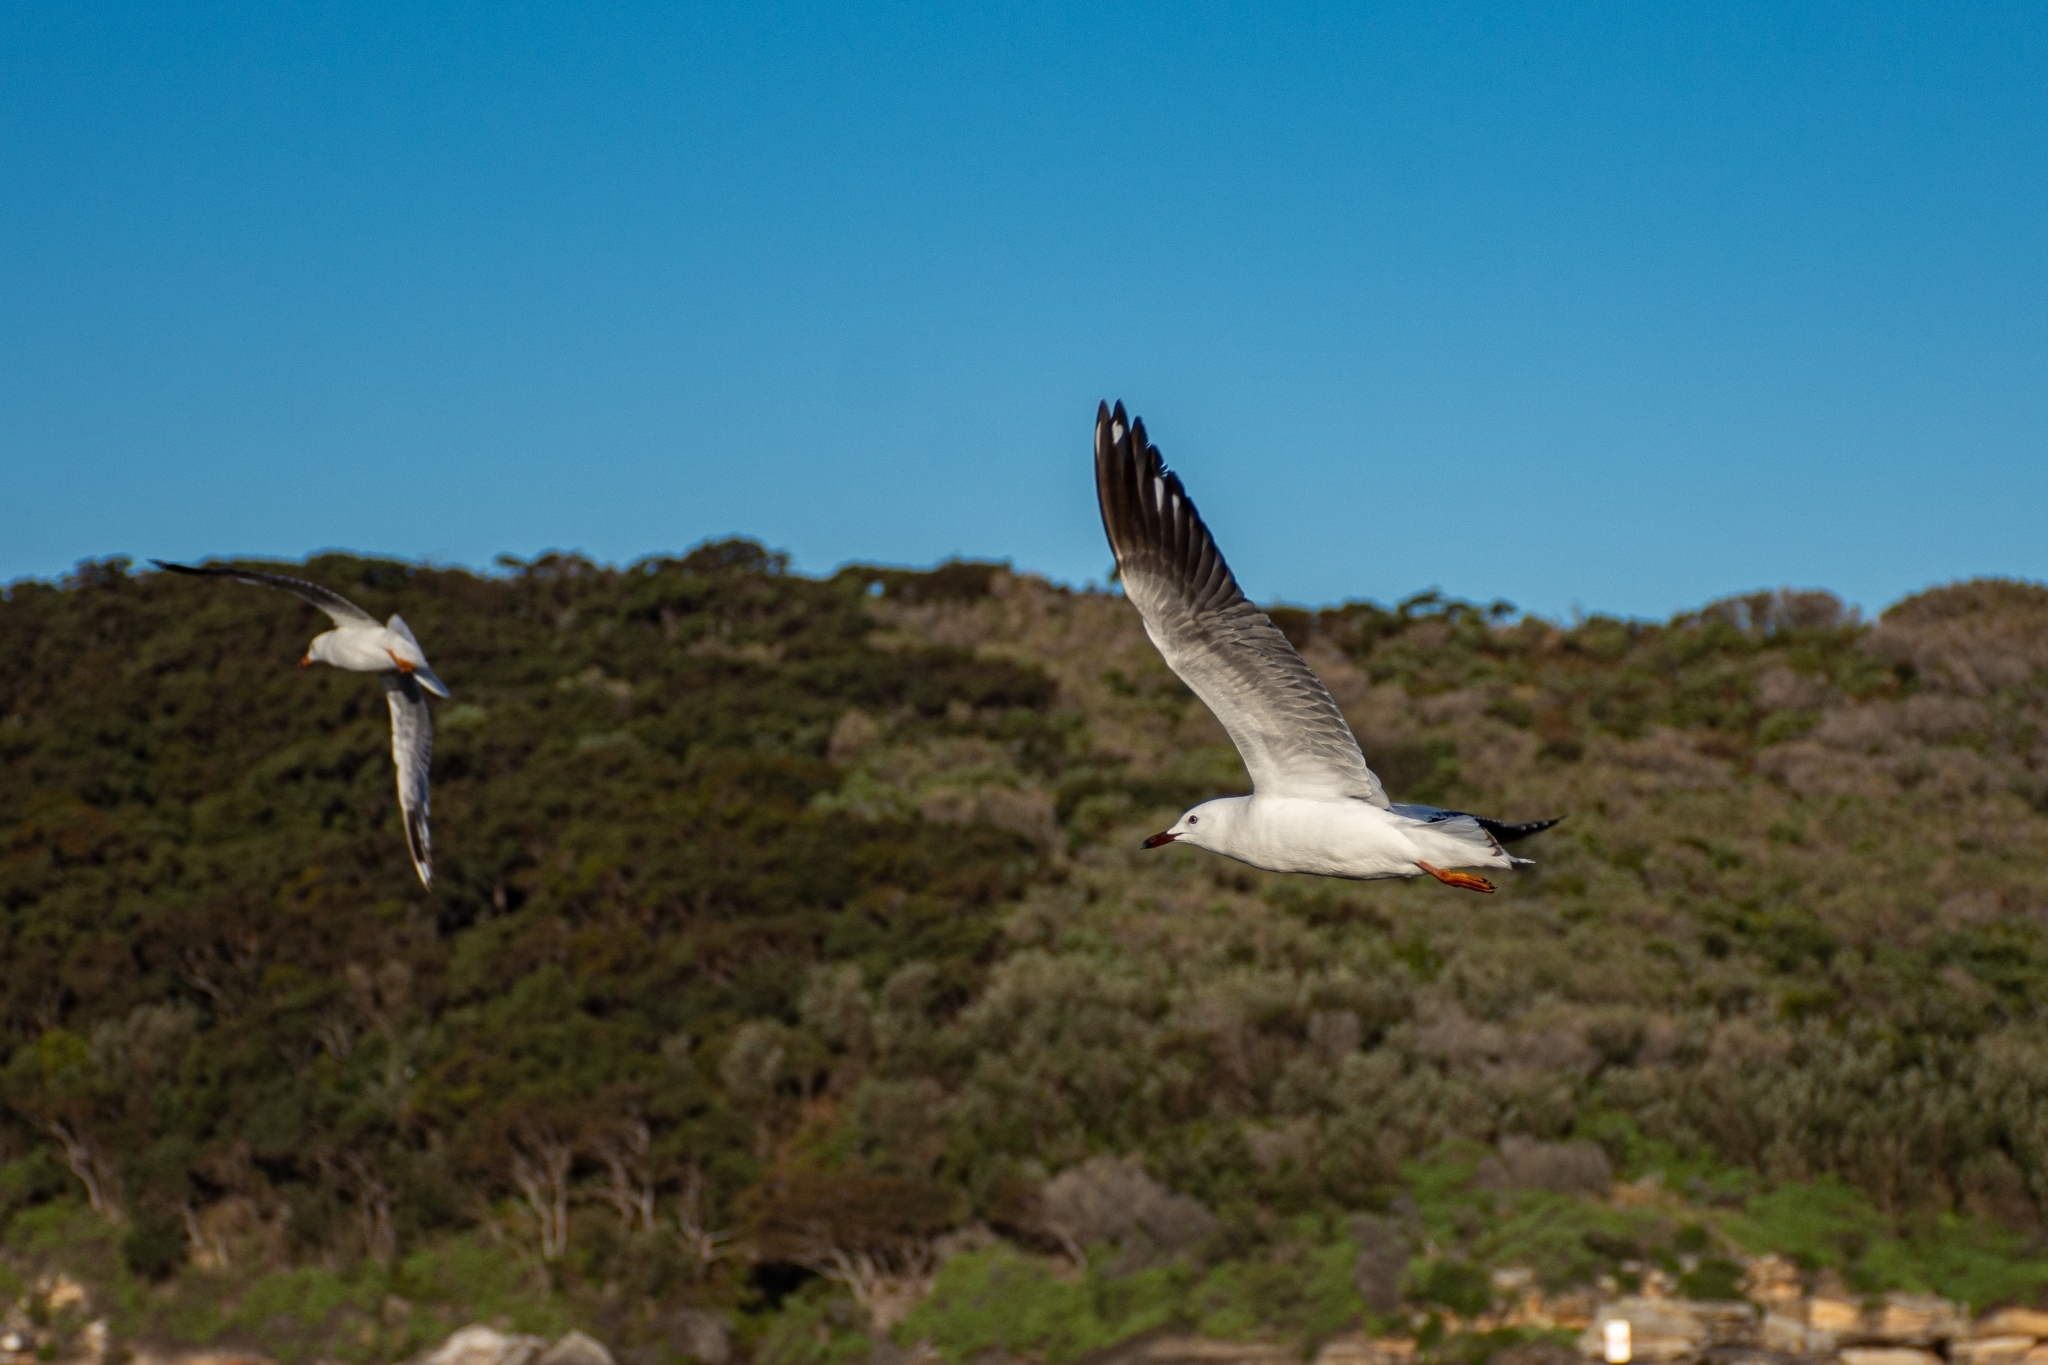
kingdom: Animalia
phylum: Chordata
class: Aves
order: Charadriiformes
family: Laridae
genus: Chroicocephalus
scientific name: Chroicocephalus novaehollandiae
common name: Silver gull
